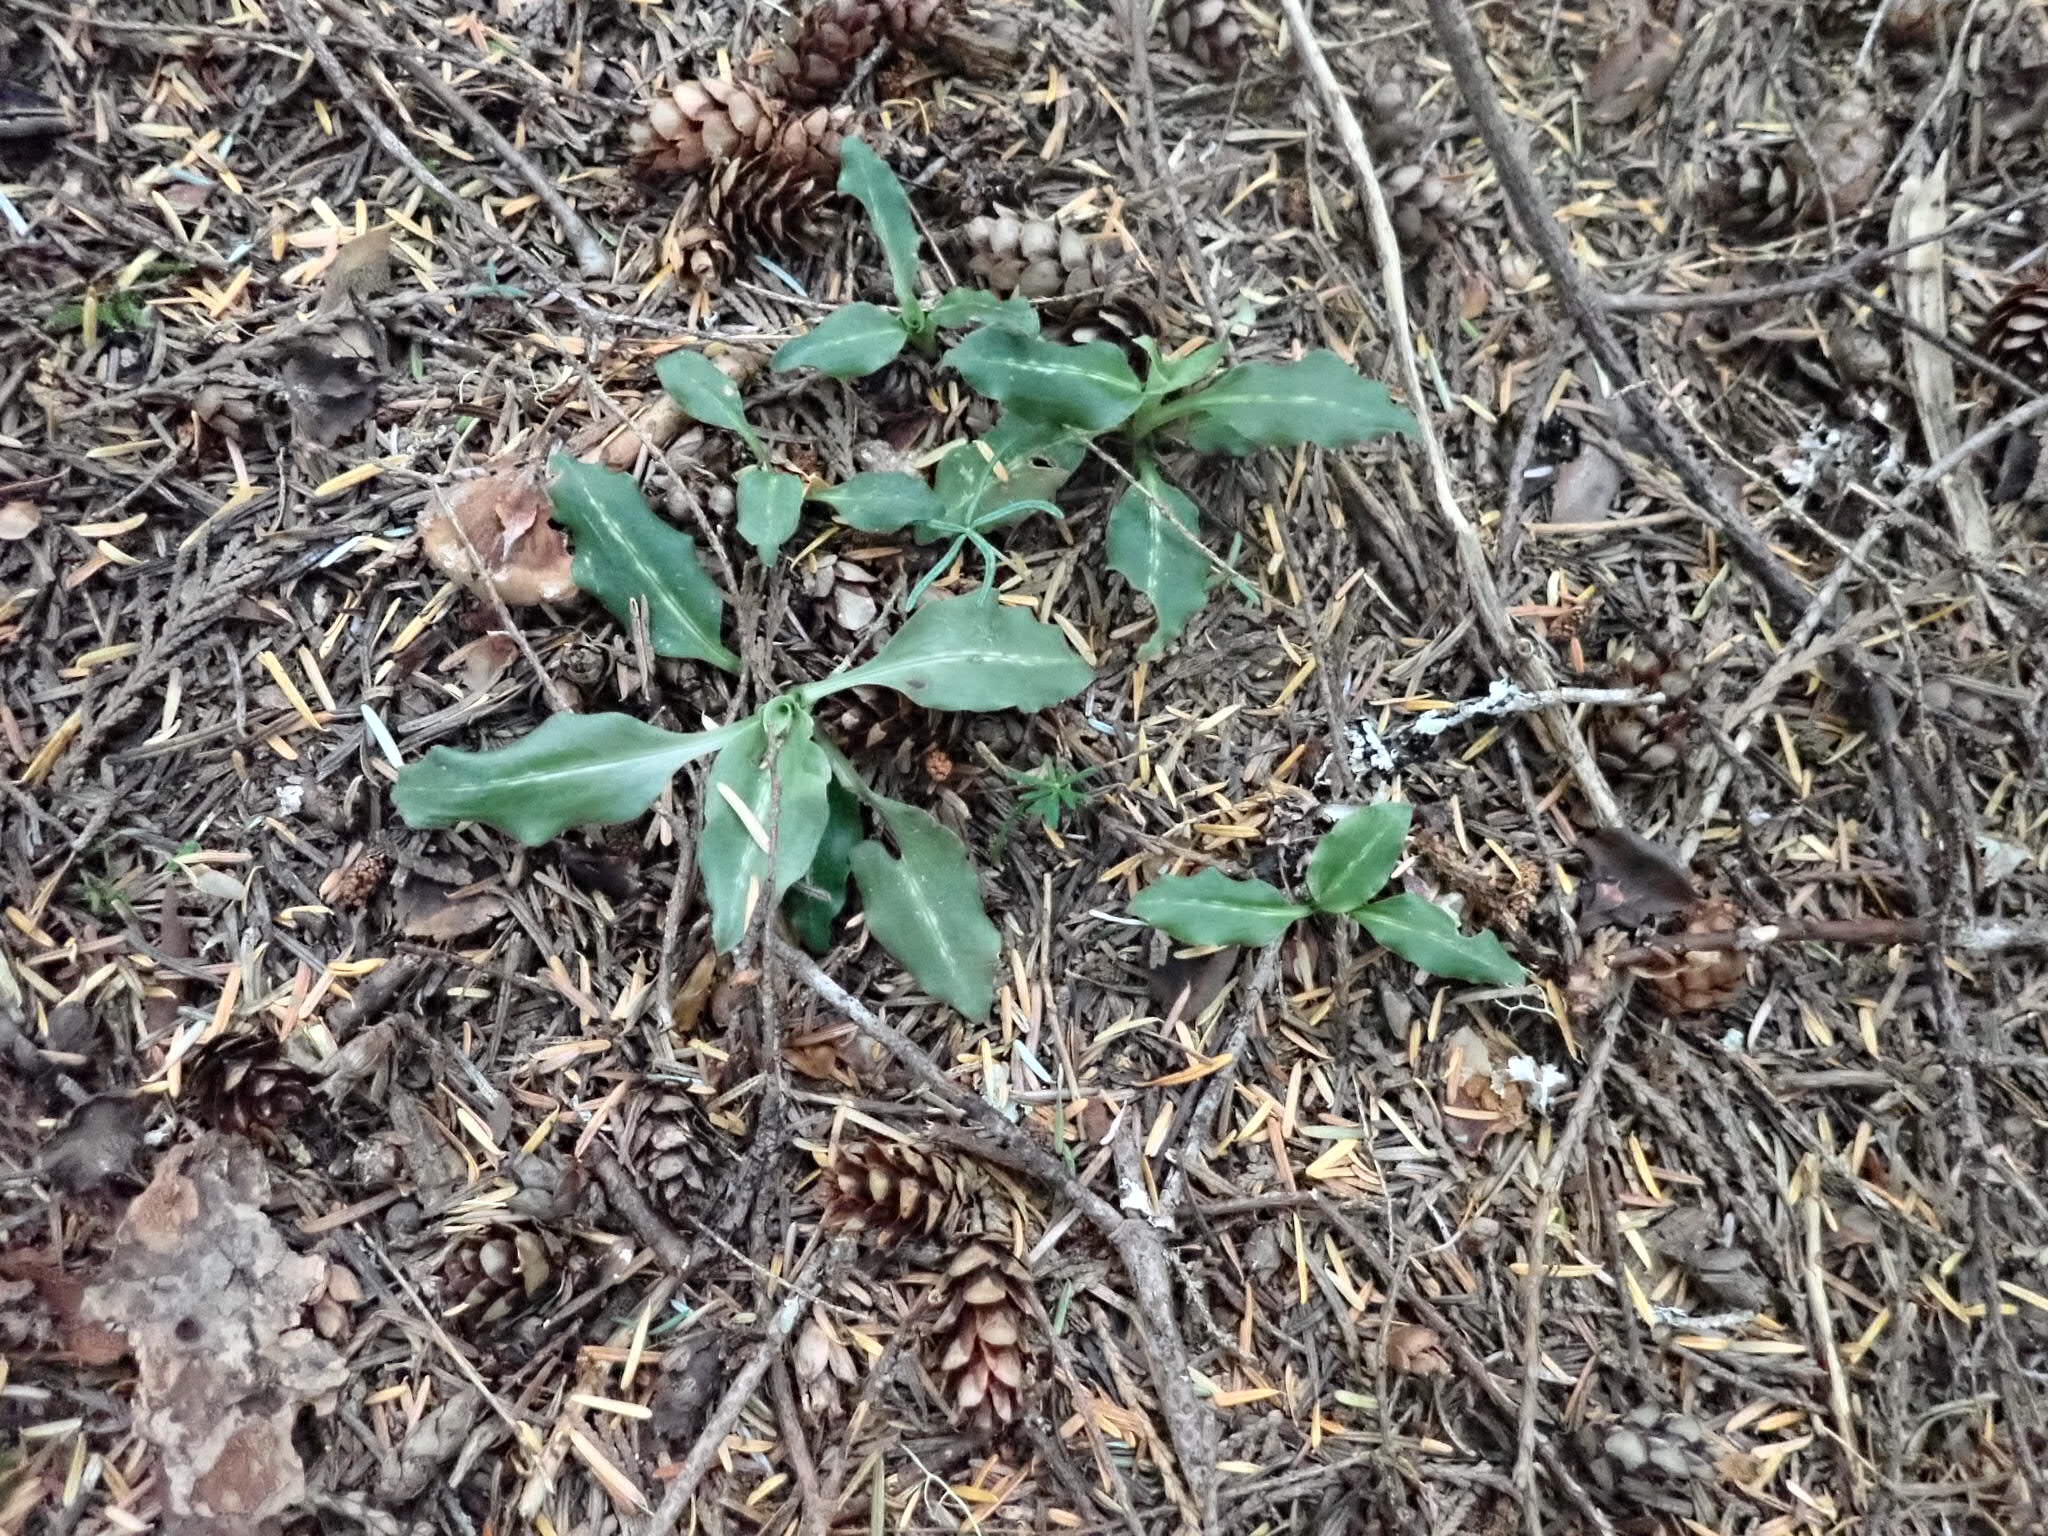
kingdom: Plantae
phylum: Tracheophyta
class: Liliopsida
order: Asparagales
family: Orchidaceae
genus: Goodyera
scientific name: Goodyera oblongifolia
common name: Giant rattlesnake-plantain
